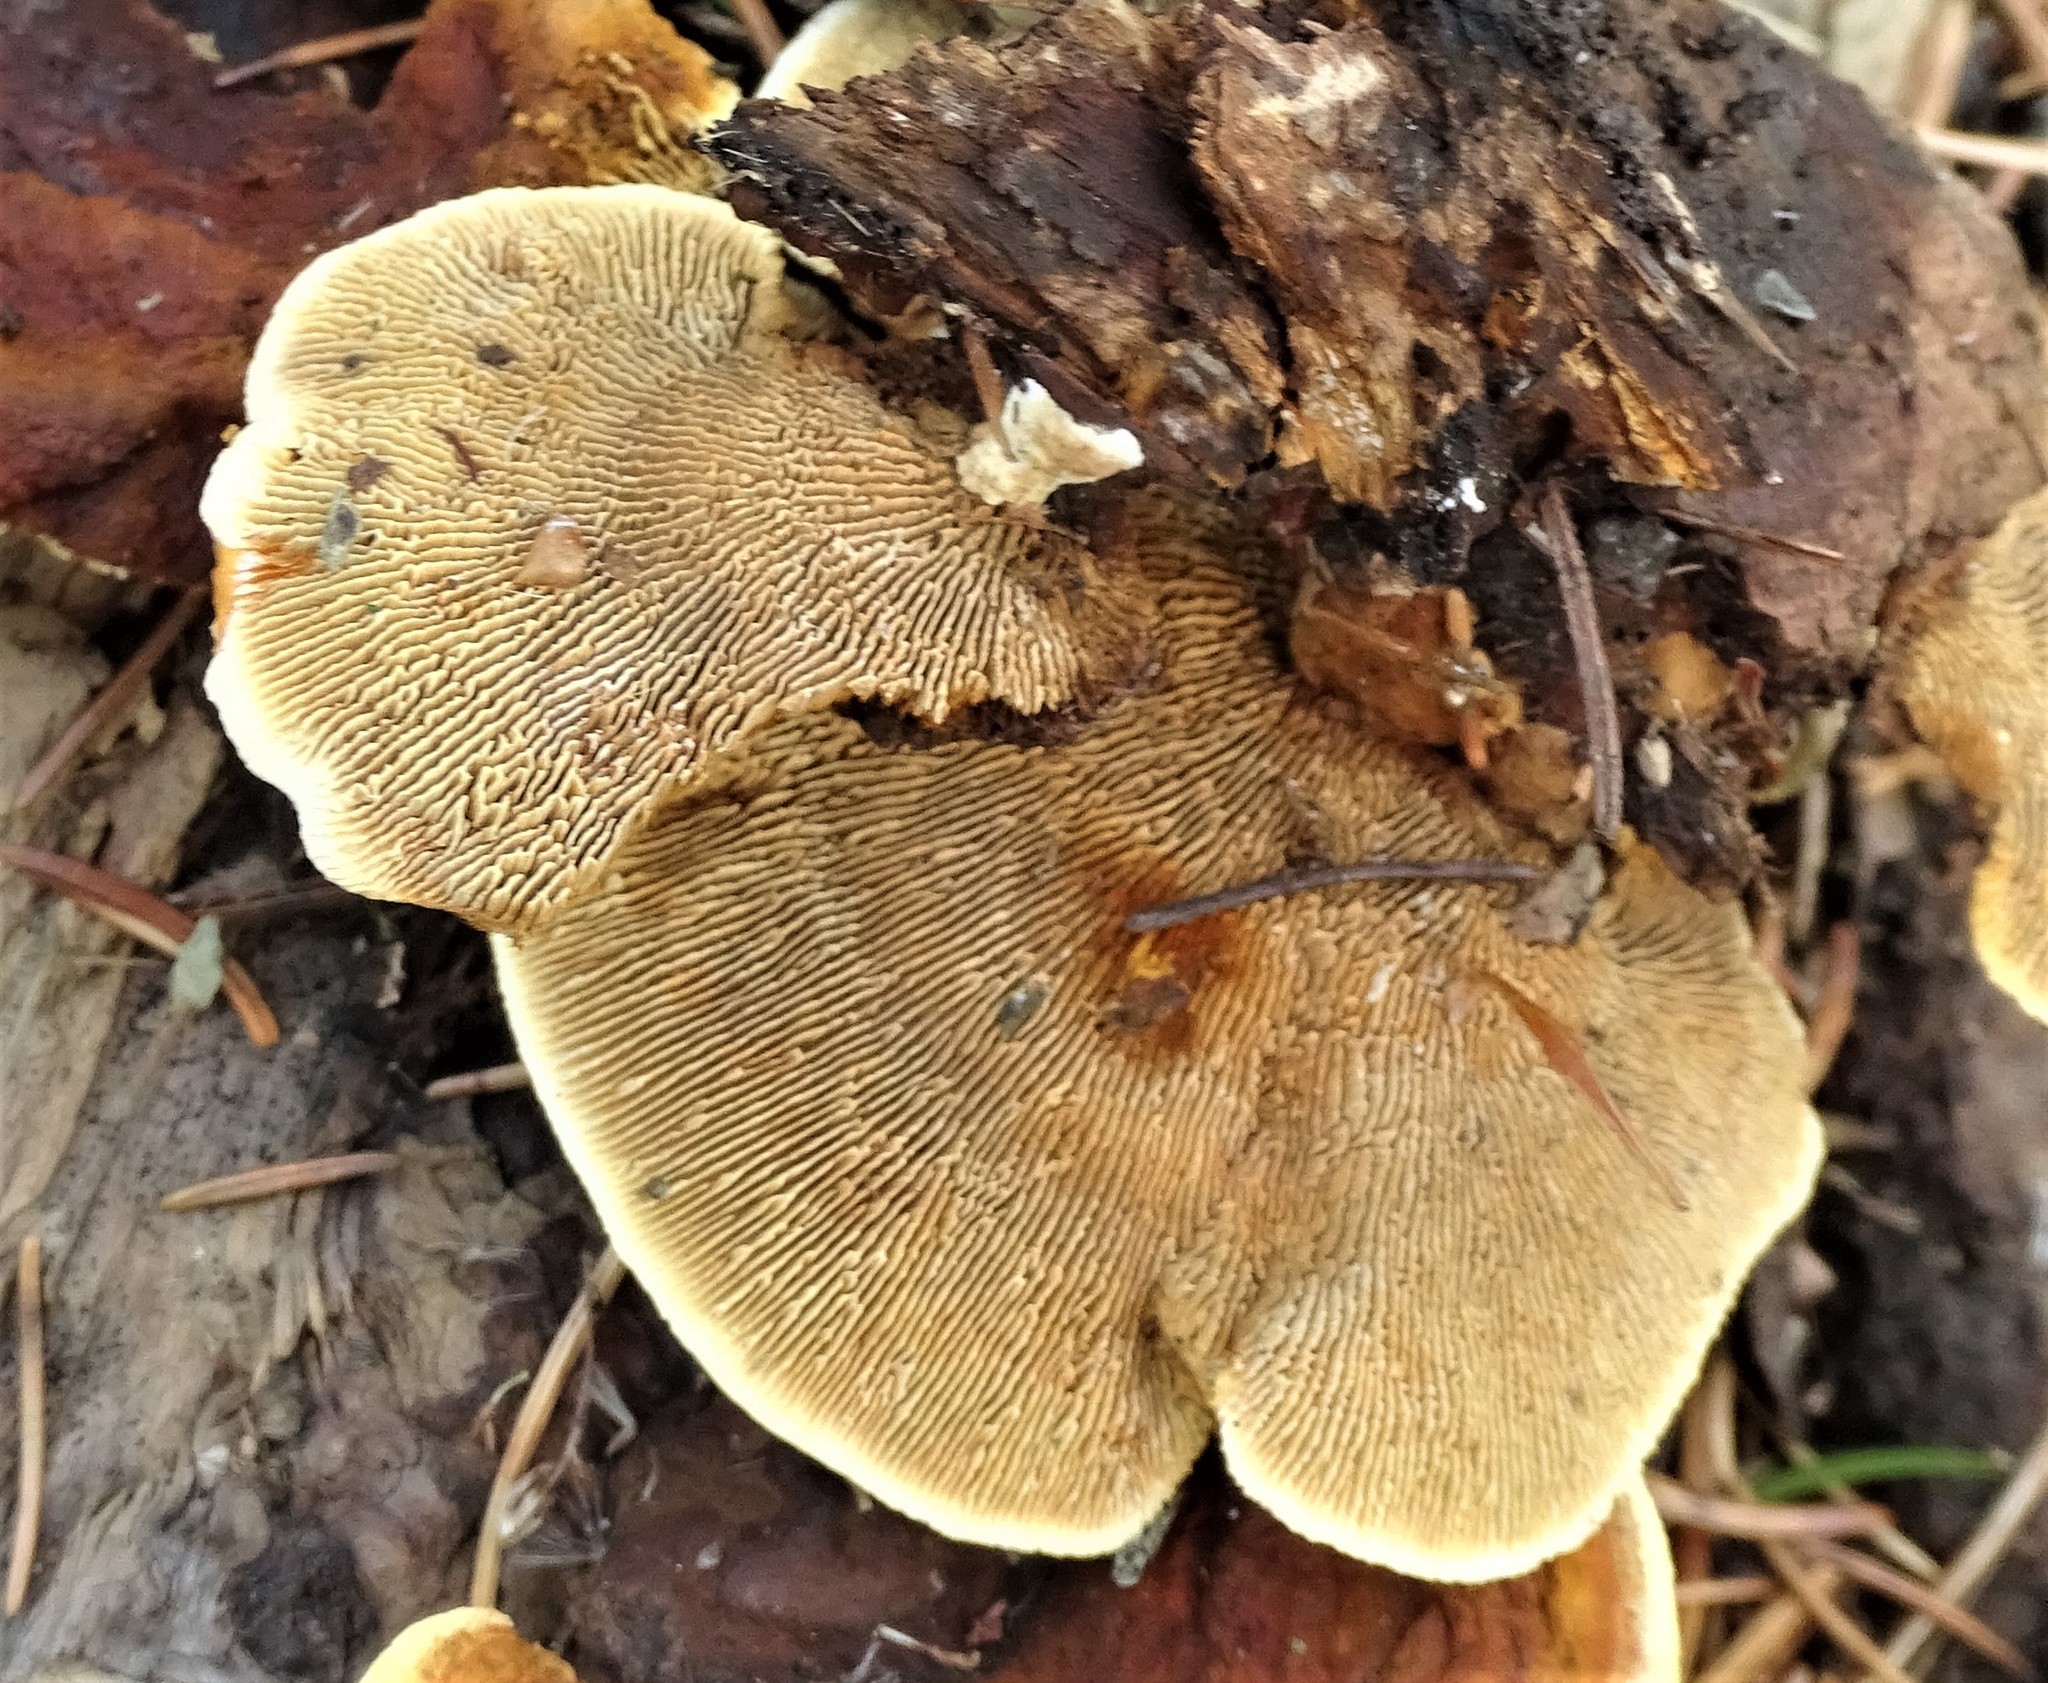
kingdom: Fungi
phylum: Basidiomycota
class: Agaricomycetes
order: Gloeophyllales
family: Gloeophyllaceae
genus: Gloeophyllum
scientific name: Gloeophyllum sepiarium
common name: Conifer mazegill
